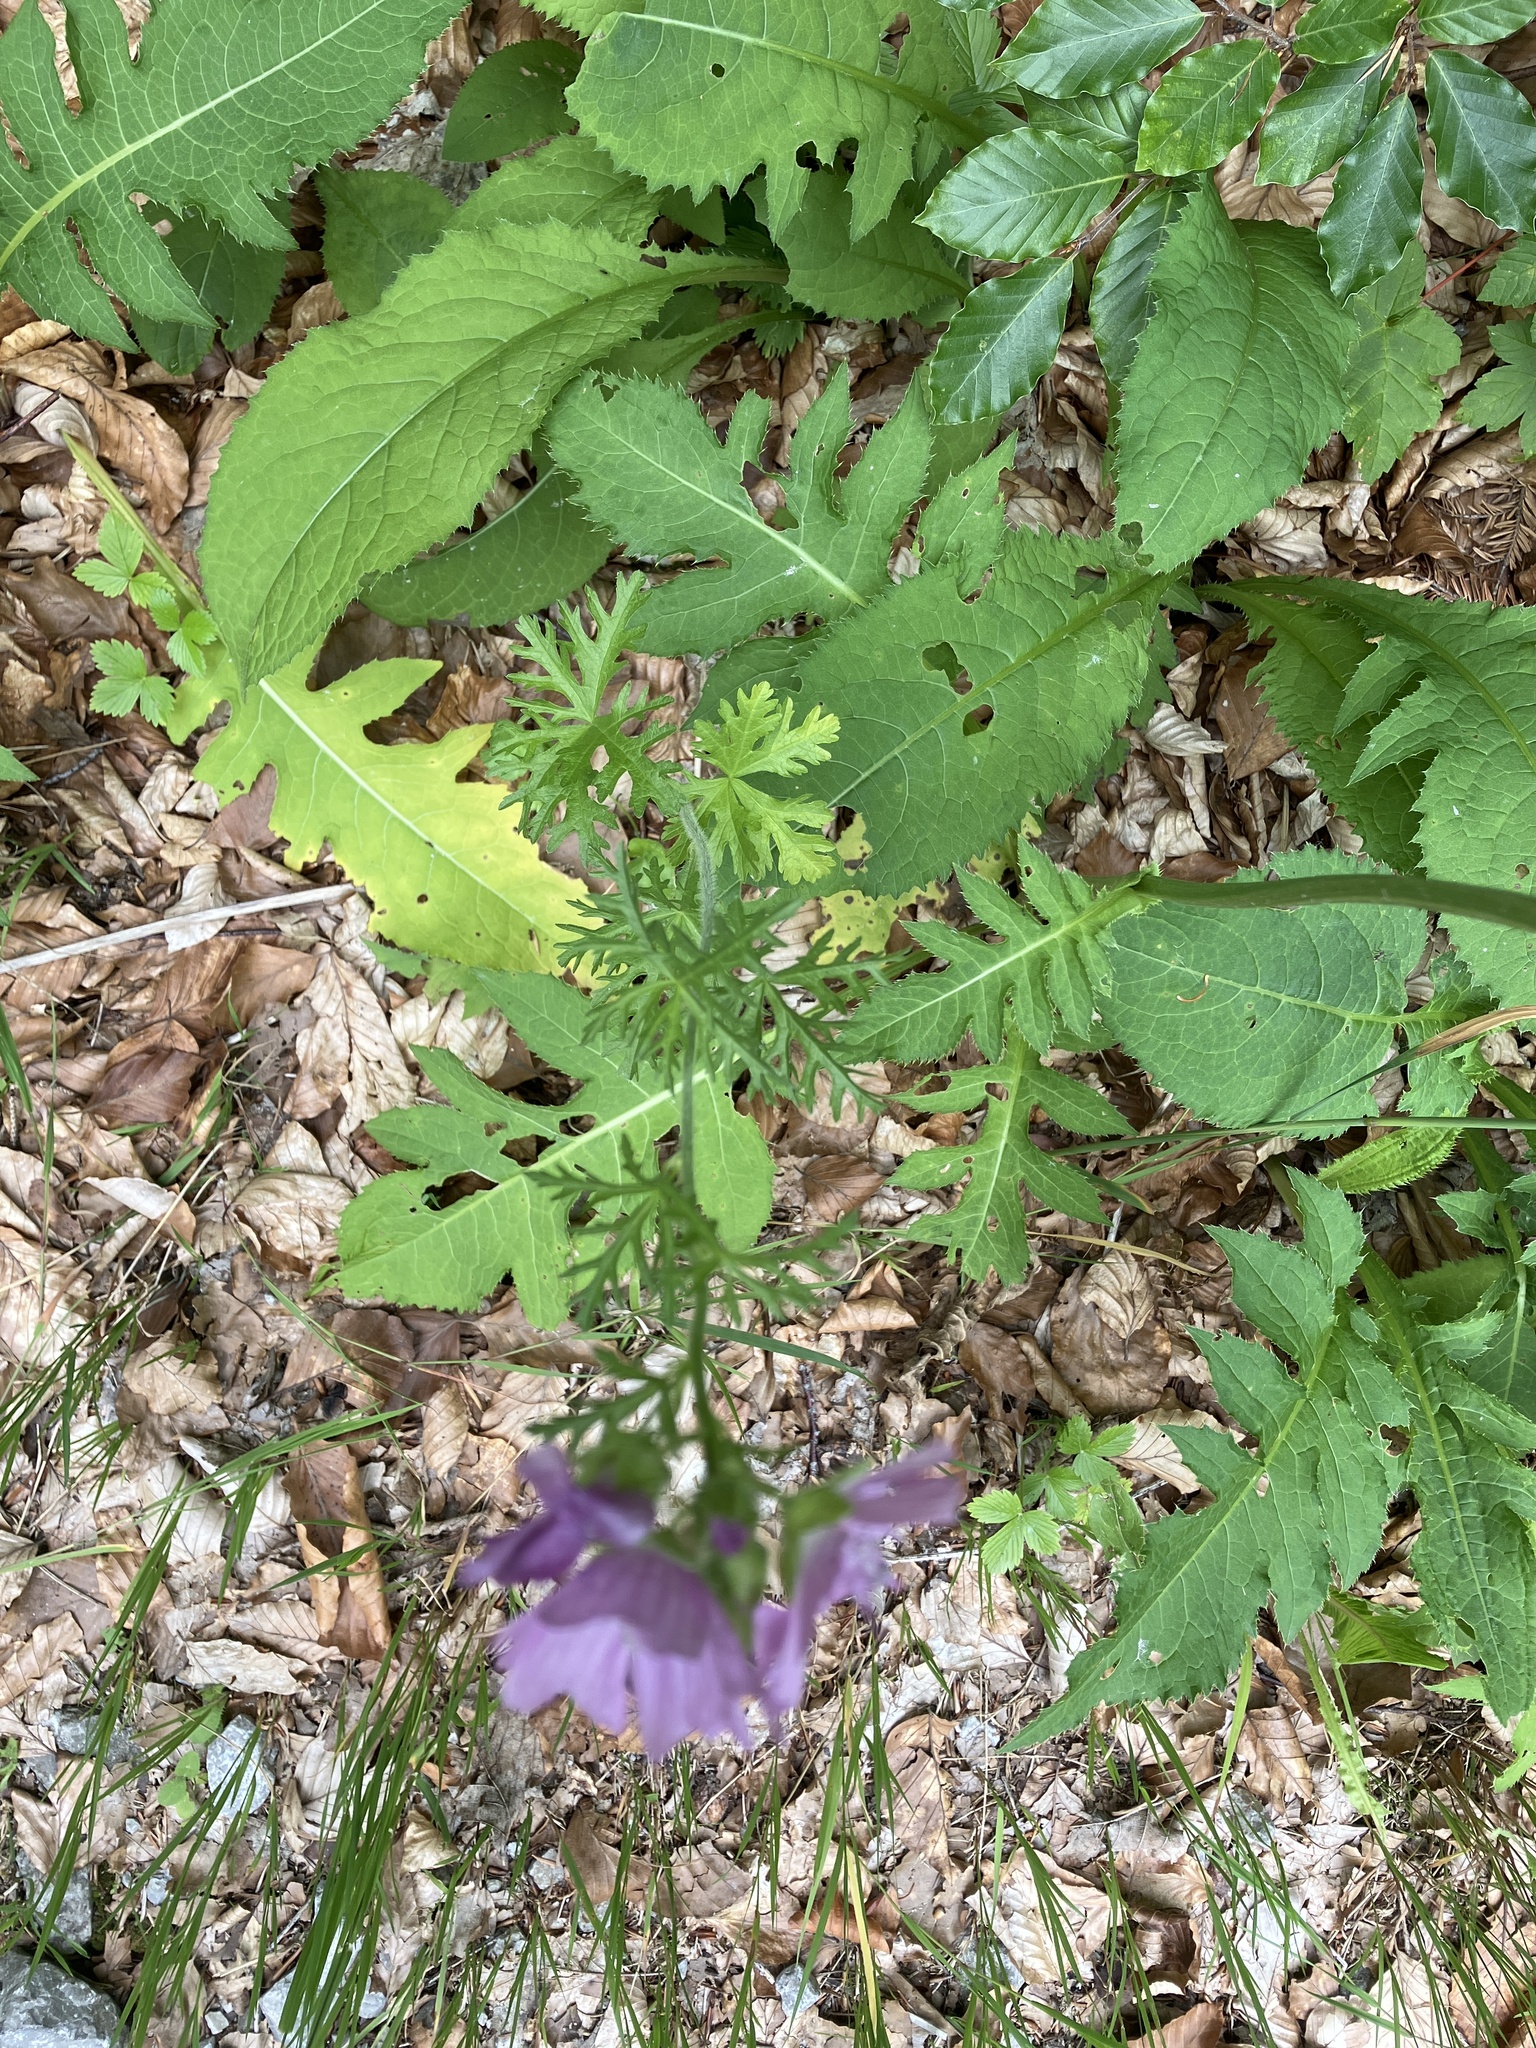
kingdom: Plantae
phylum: Tracheophyta
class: Magnoliopsida
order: Malvales
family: Malvaceae
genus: Malva
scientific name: Malva moschata
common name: Musk mallow
